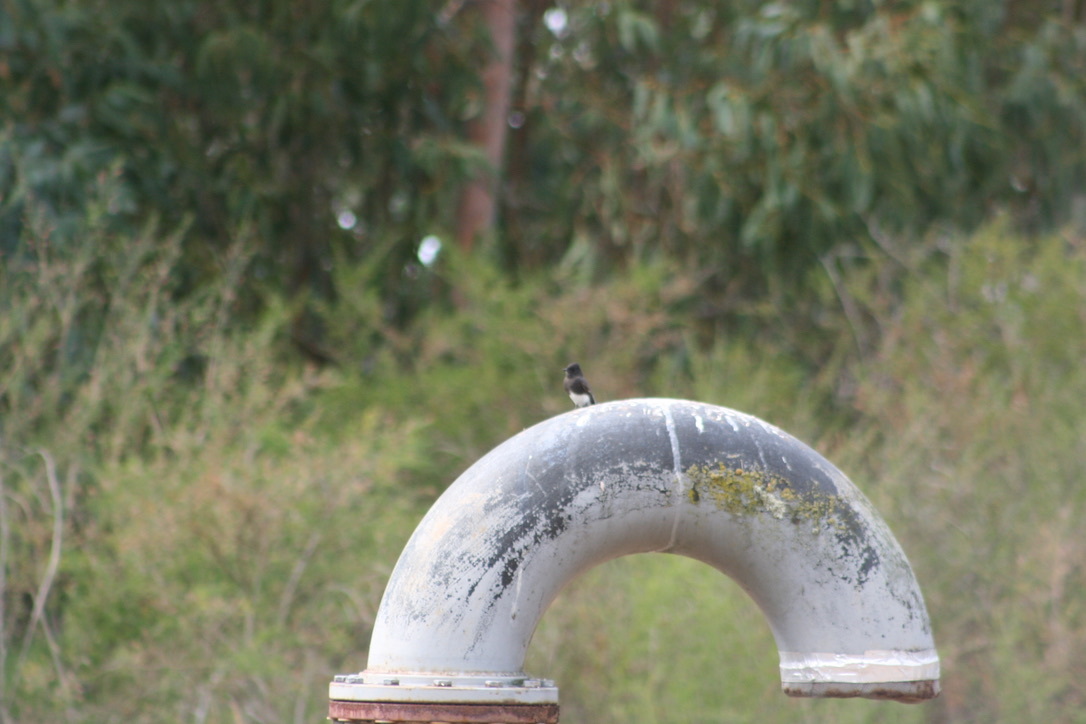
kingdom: Animalia
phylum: Chordata
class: Aves
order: Passeriformes
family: Tyrannidae
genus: Sayornis
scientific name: Sayornis nigricans
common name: Black phoebe
